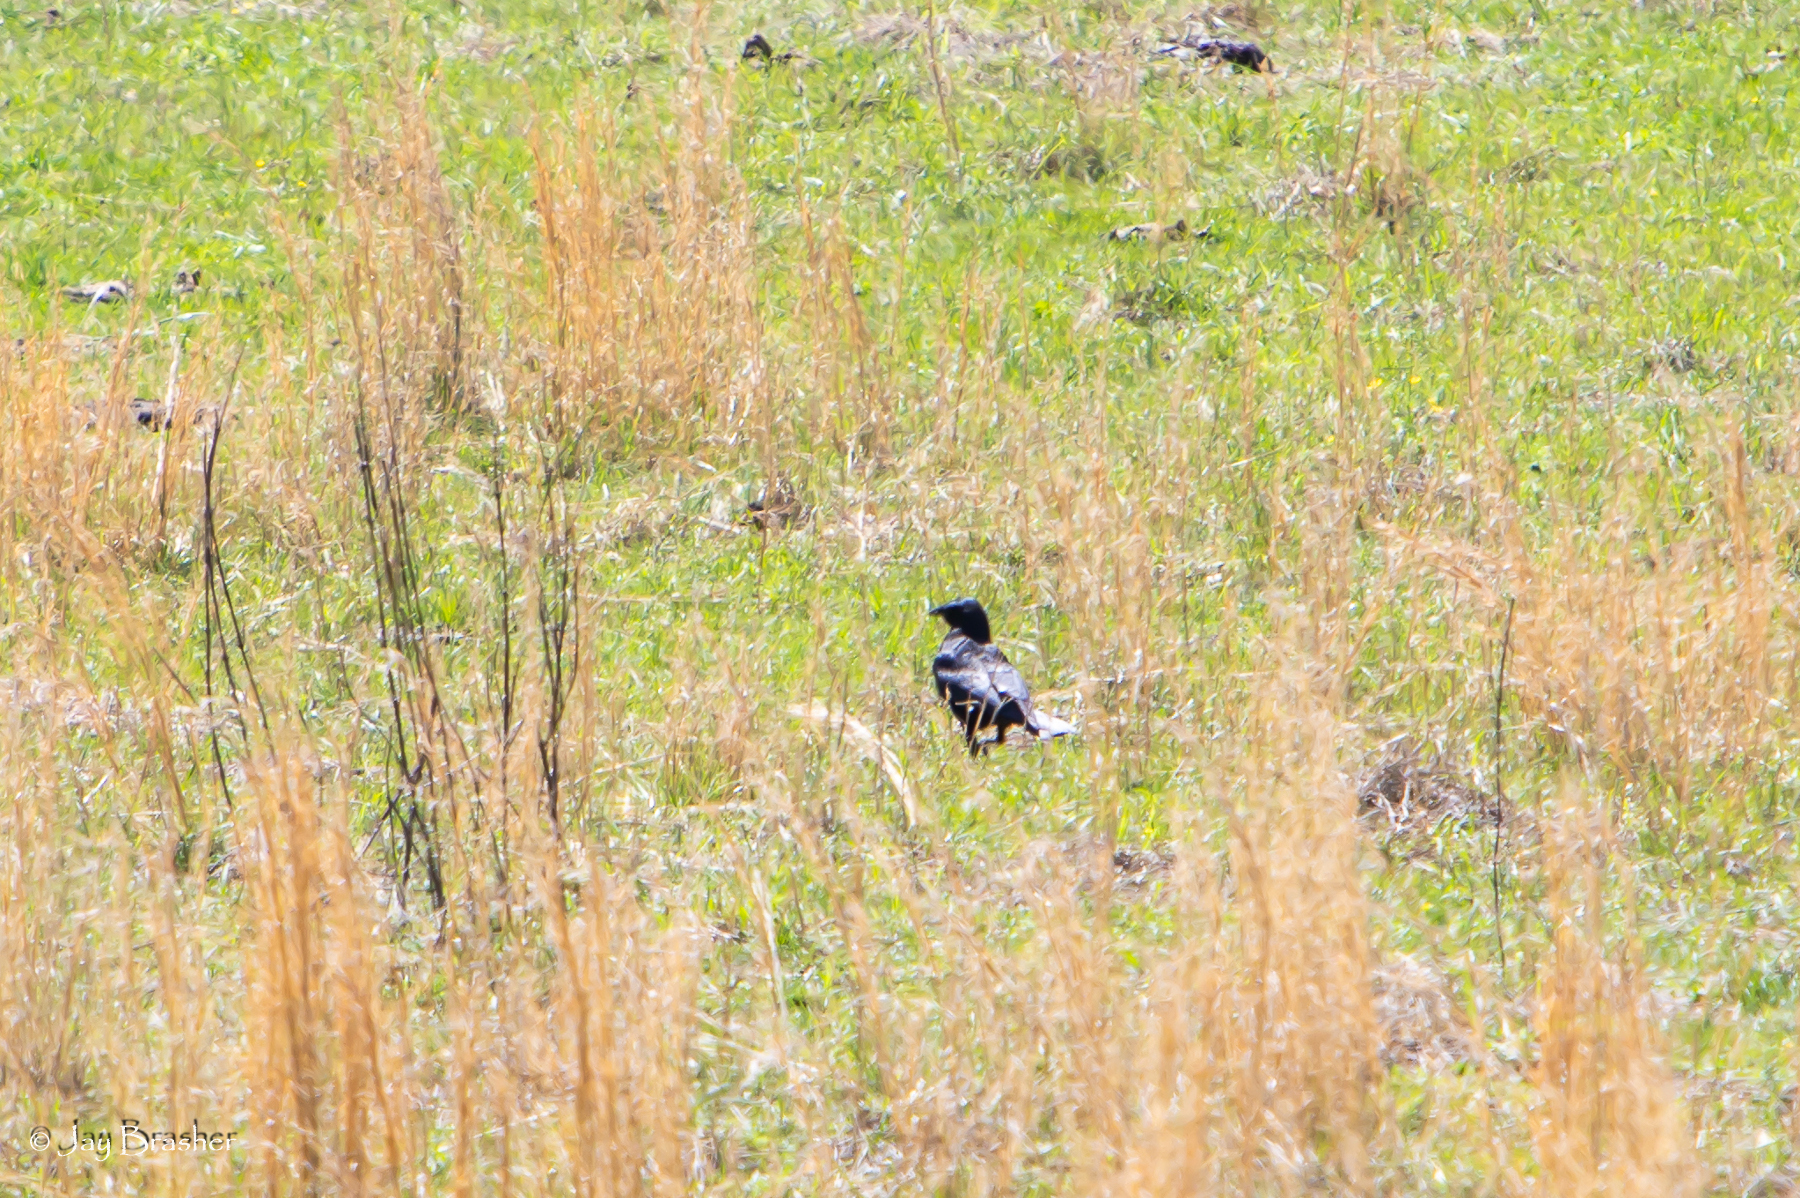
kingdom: Animalia
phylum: Chordata
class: Aves
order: Passeriformes
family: Corvidae
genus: Corvus
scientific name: Corvus brachyrhynchos
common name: American crow
